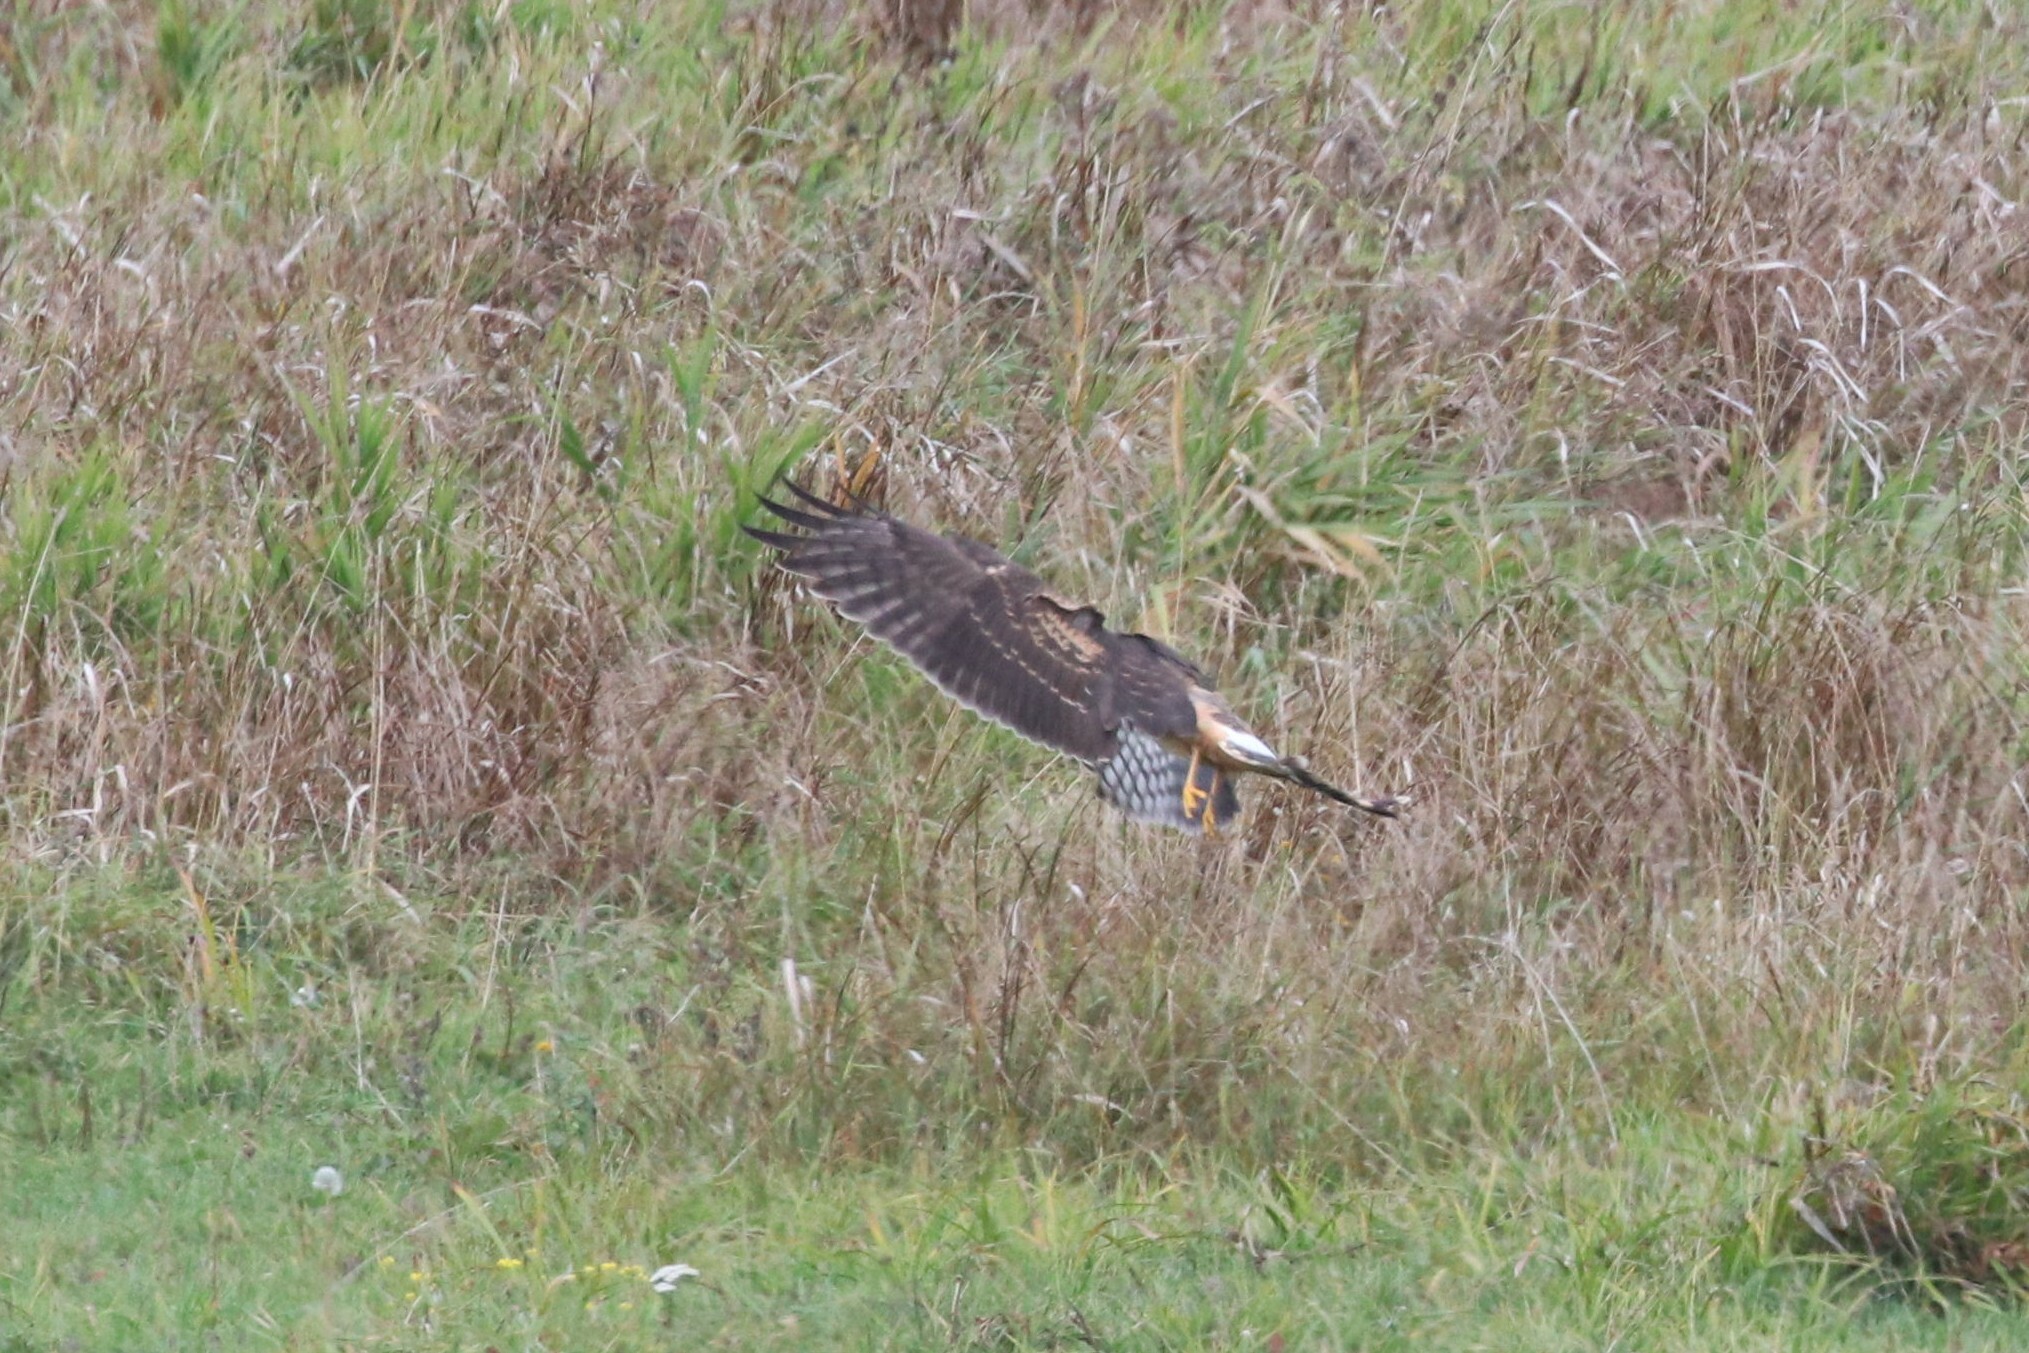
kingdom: Animalia
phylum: Chordata
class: Aves
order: Accipitriformes
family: Accipitridae
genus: Circus
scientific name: Circus cyaneus
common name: Hen harrier
